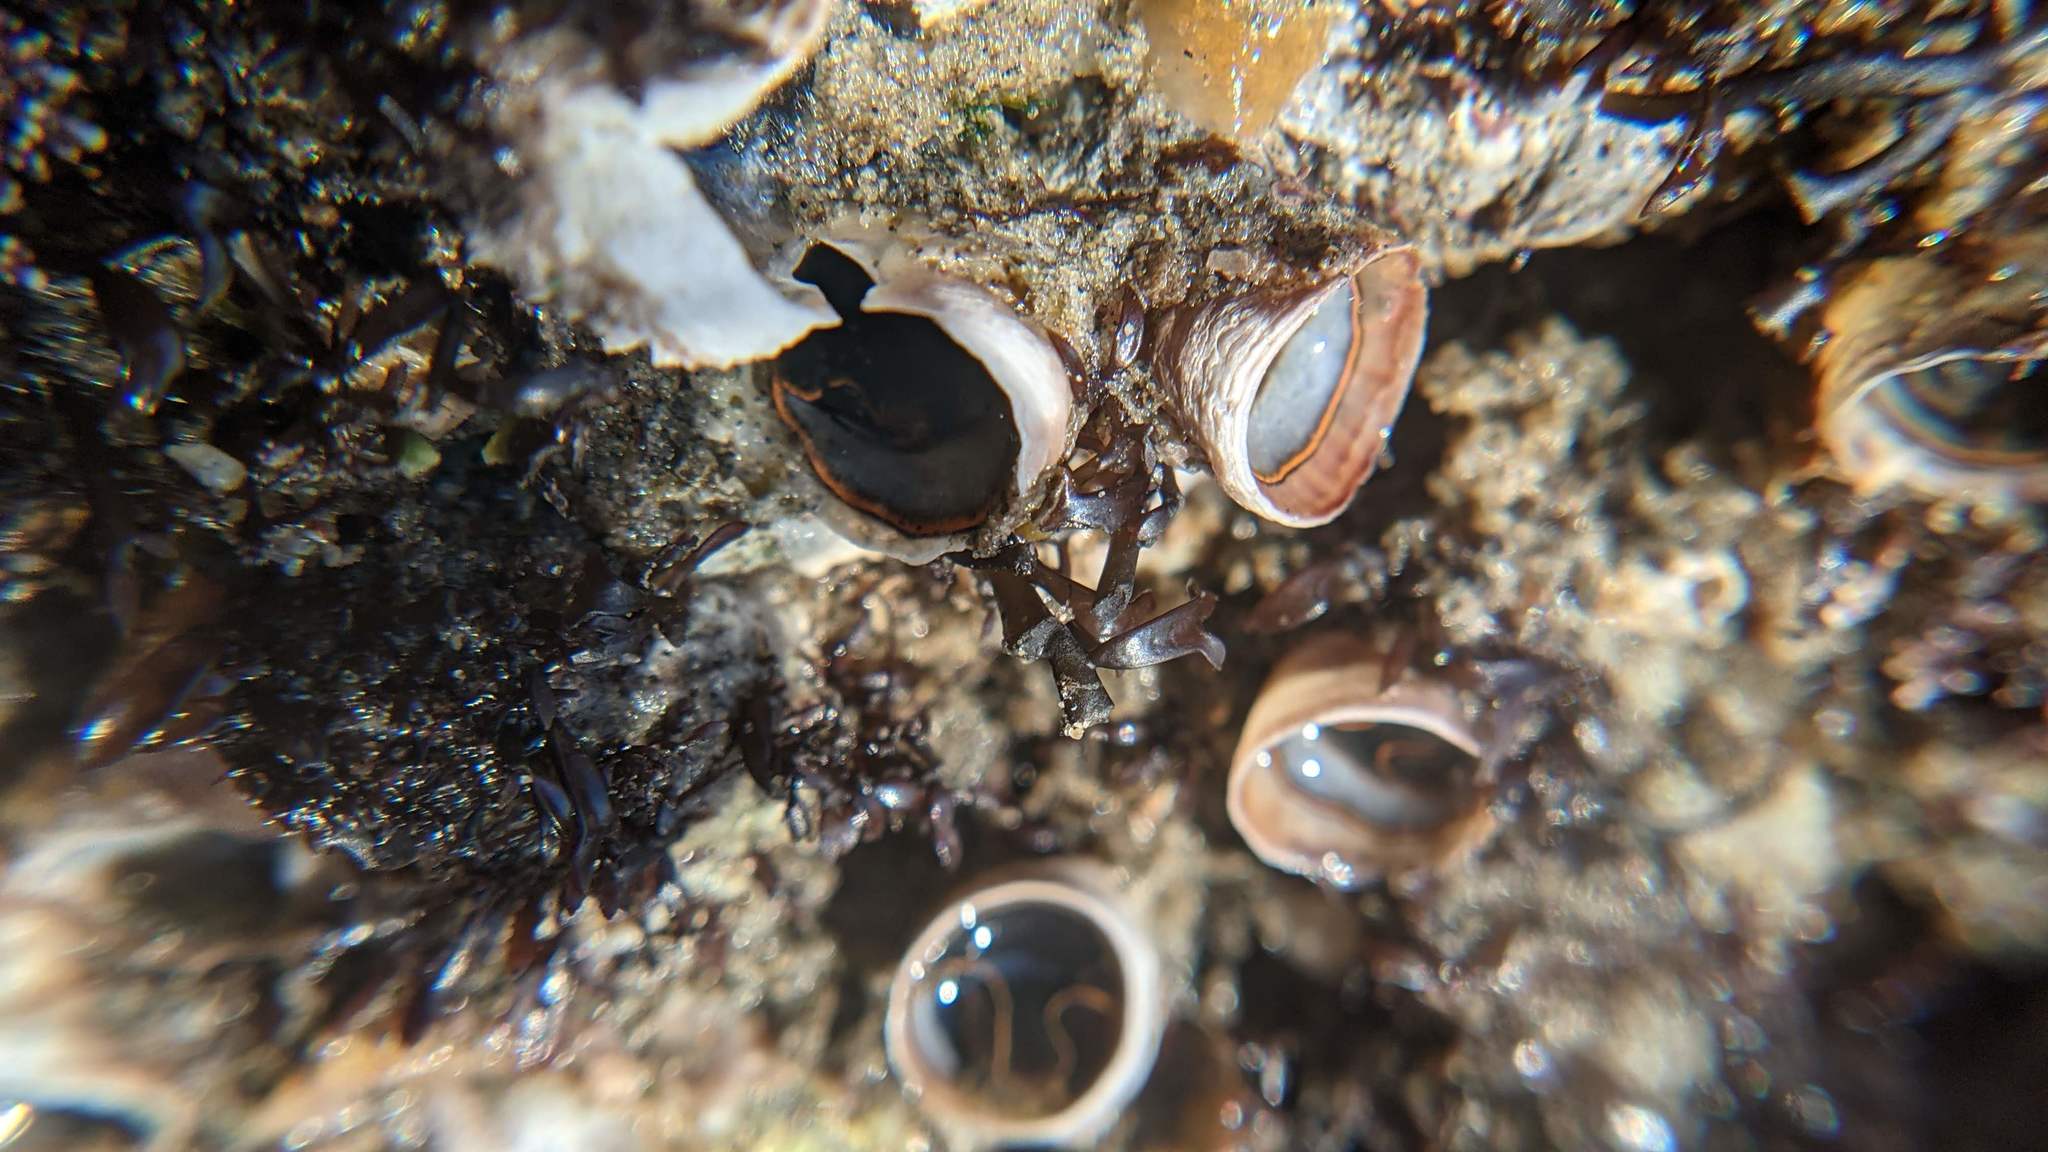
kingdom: Animalia
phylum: Mollusca
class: Gastropoda
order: Littorinimorpha
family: Vermetidae
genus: Thylacodes
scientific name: Thylacodes squamigerus
